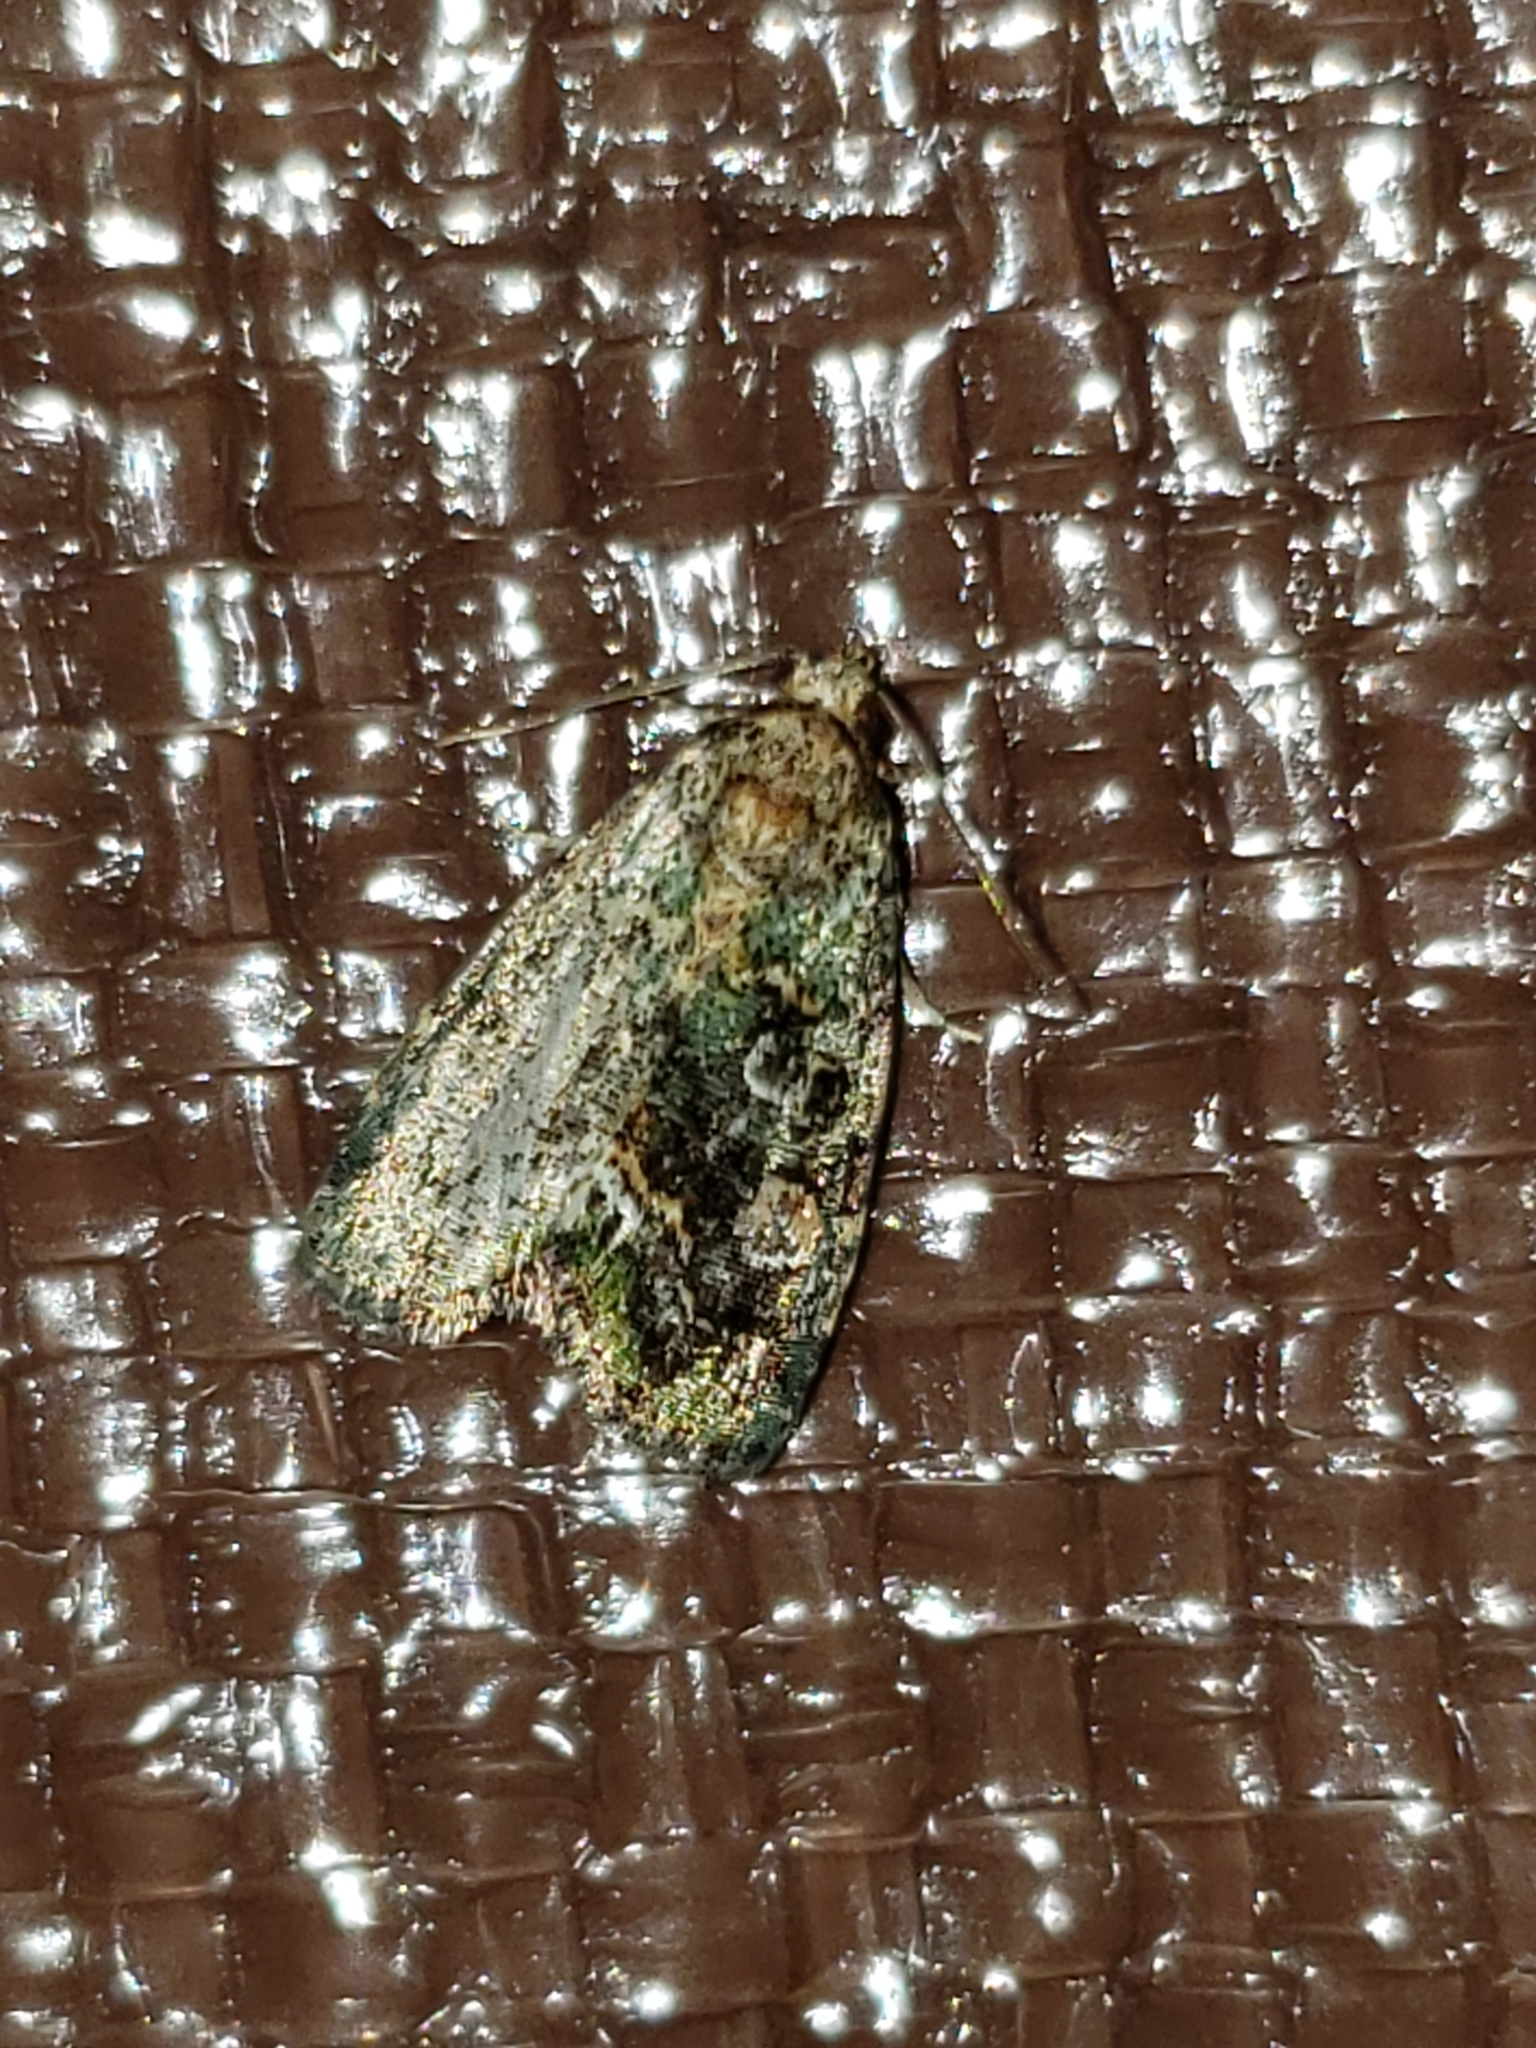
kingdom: Animalia
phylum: Arthropoda
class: Insecta
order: Lepidoptera
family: Noctuidae
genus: Lithacodia
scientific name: Lithacodia musta
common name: Small mossy glyph
